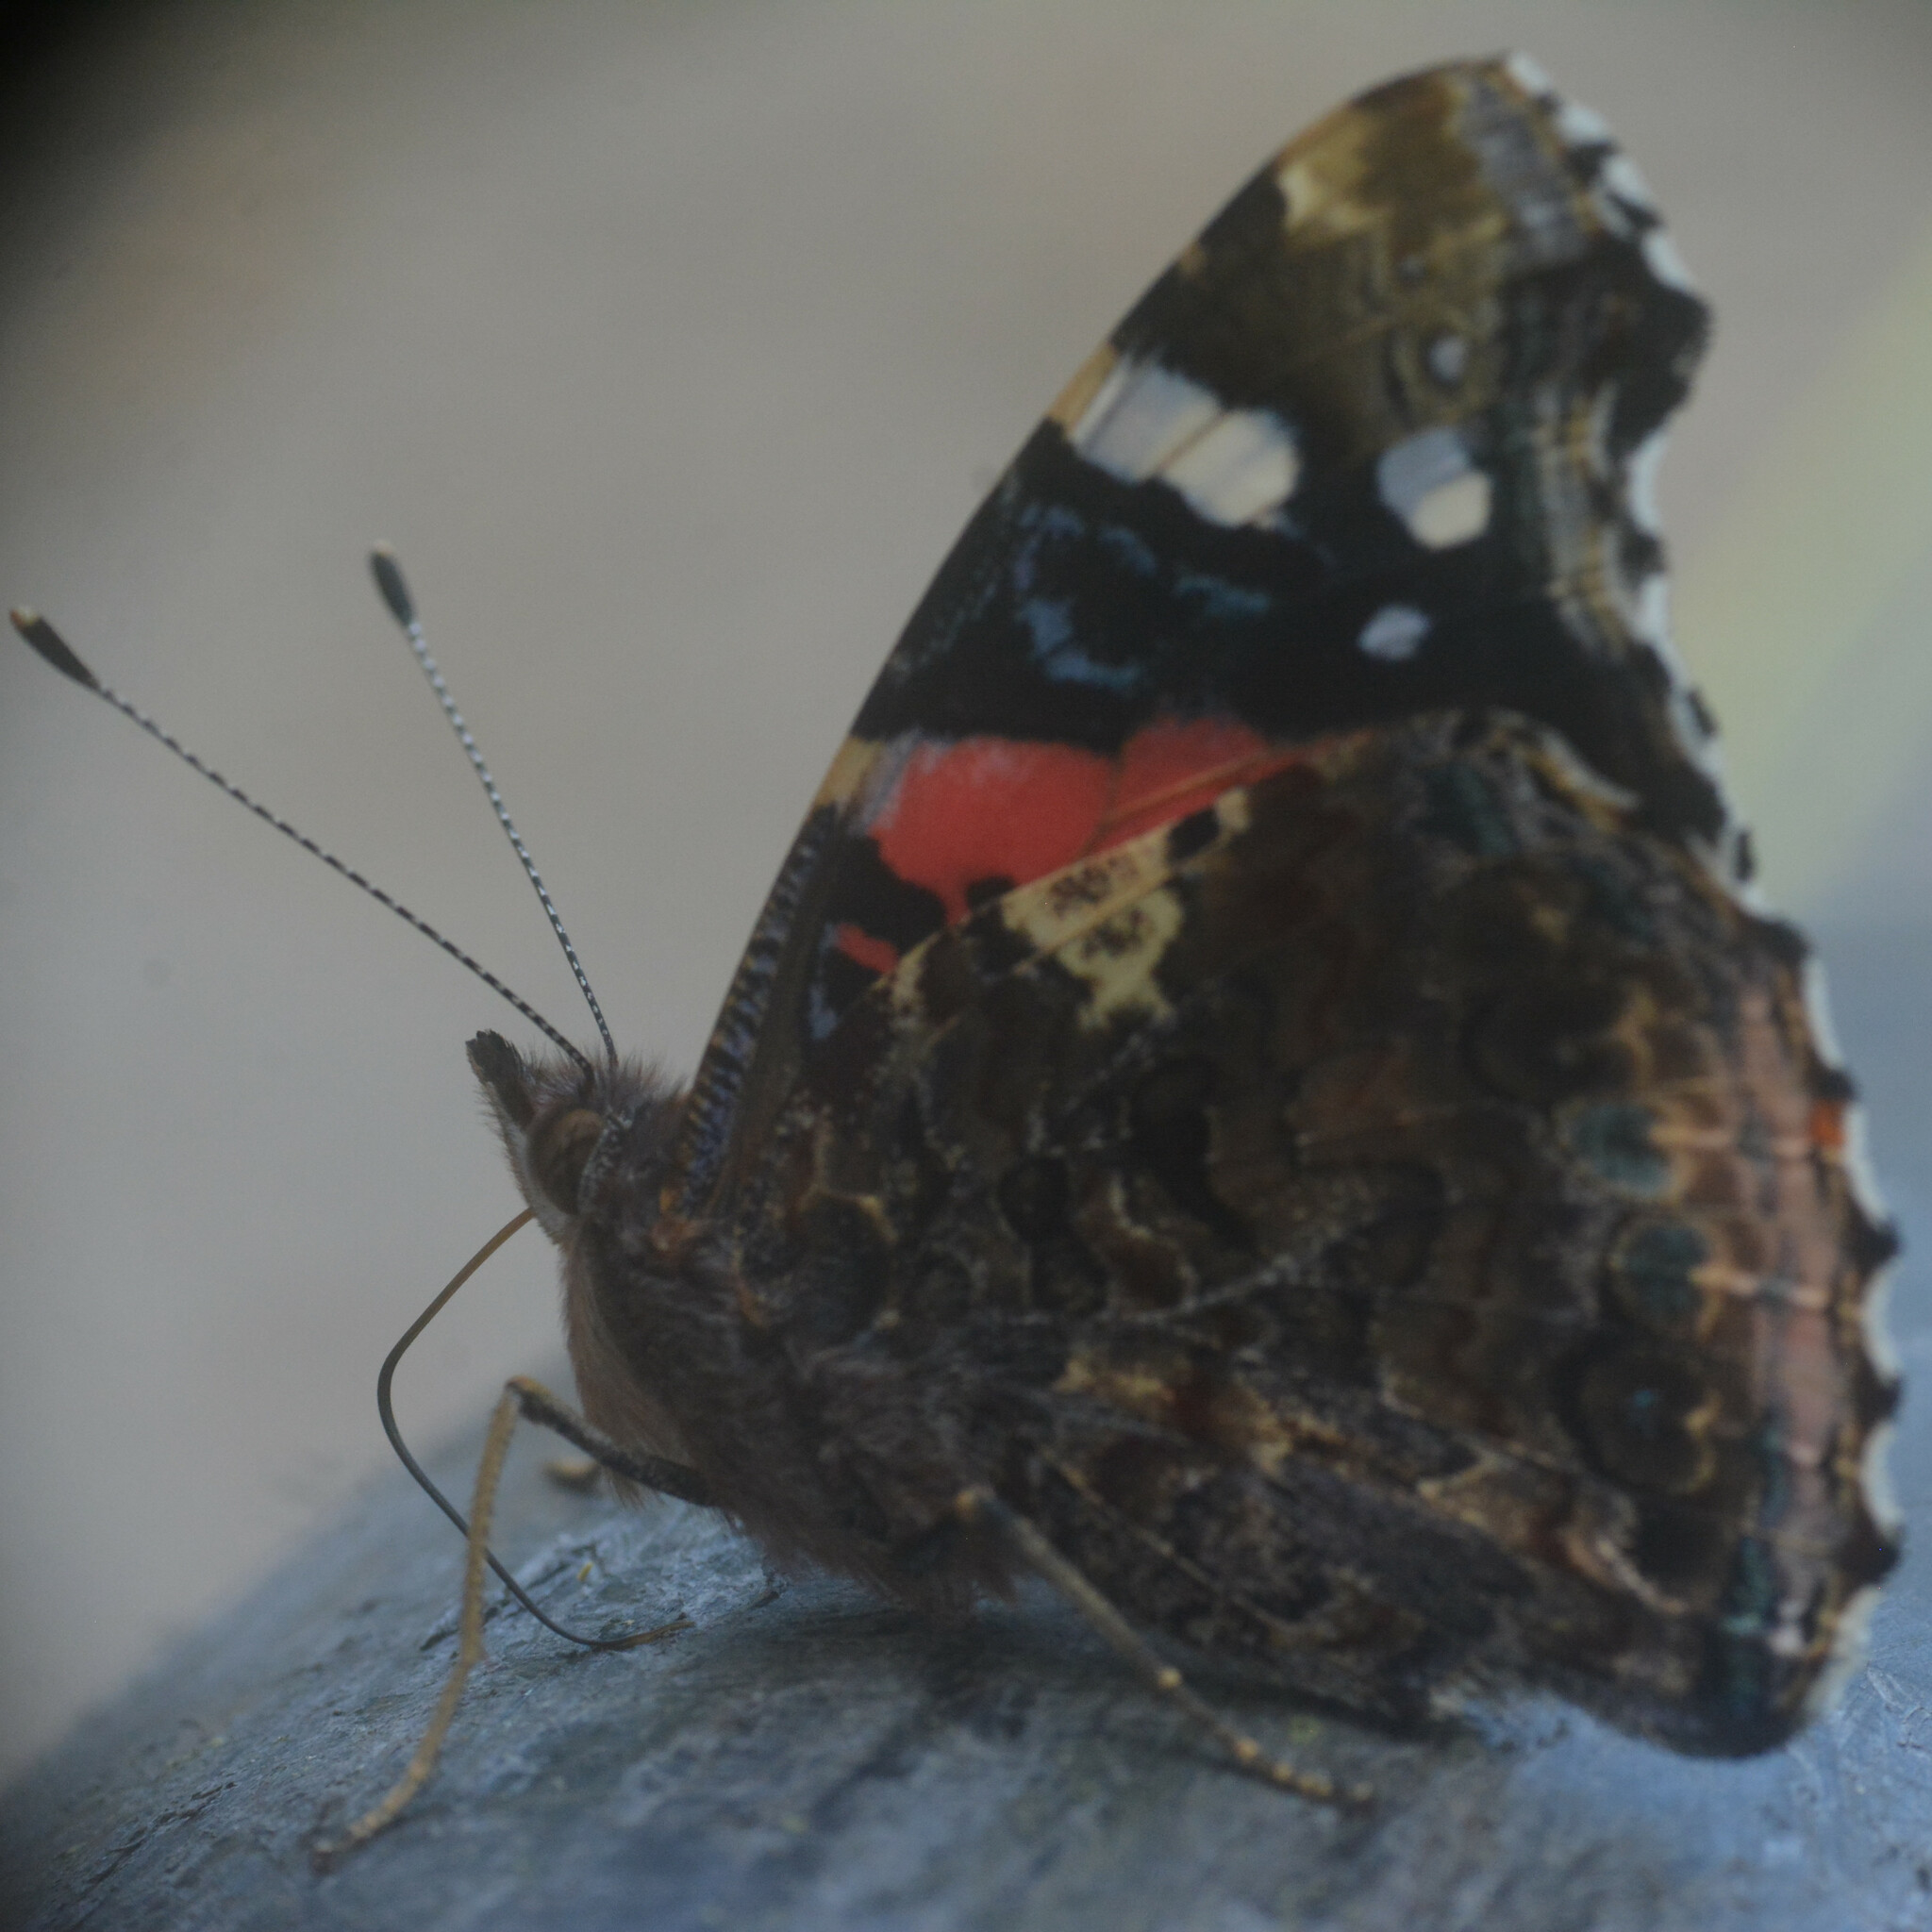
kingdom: Animalia
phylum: Arthropoda
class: Insecta
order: Lepidoptera
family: Nymphalidae
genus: Vanessa
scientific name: Vanessa atalanta
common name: Red admiral
